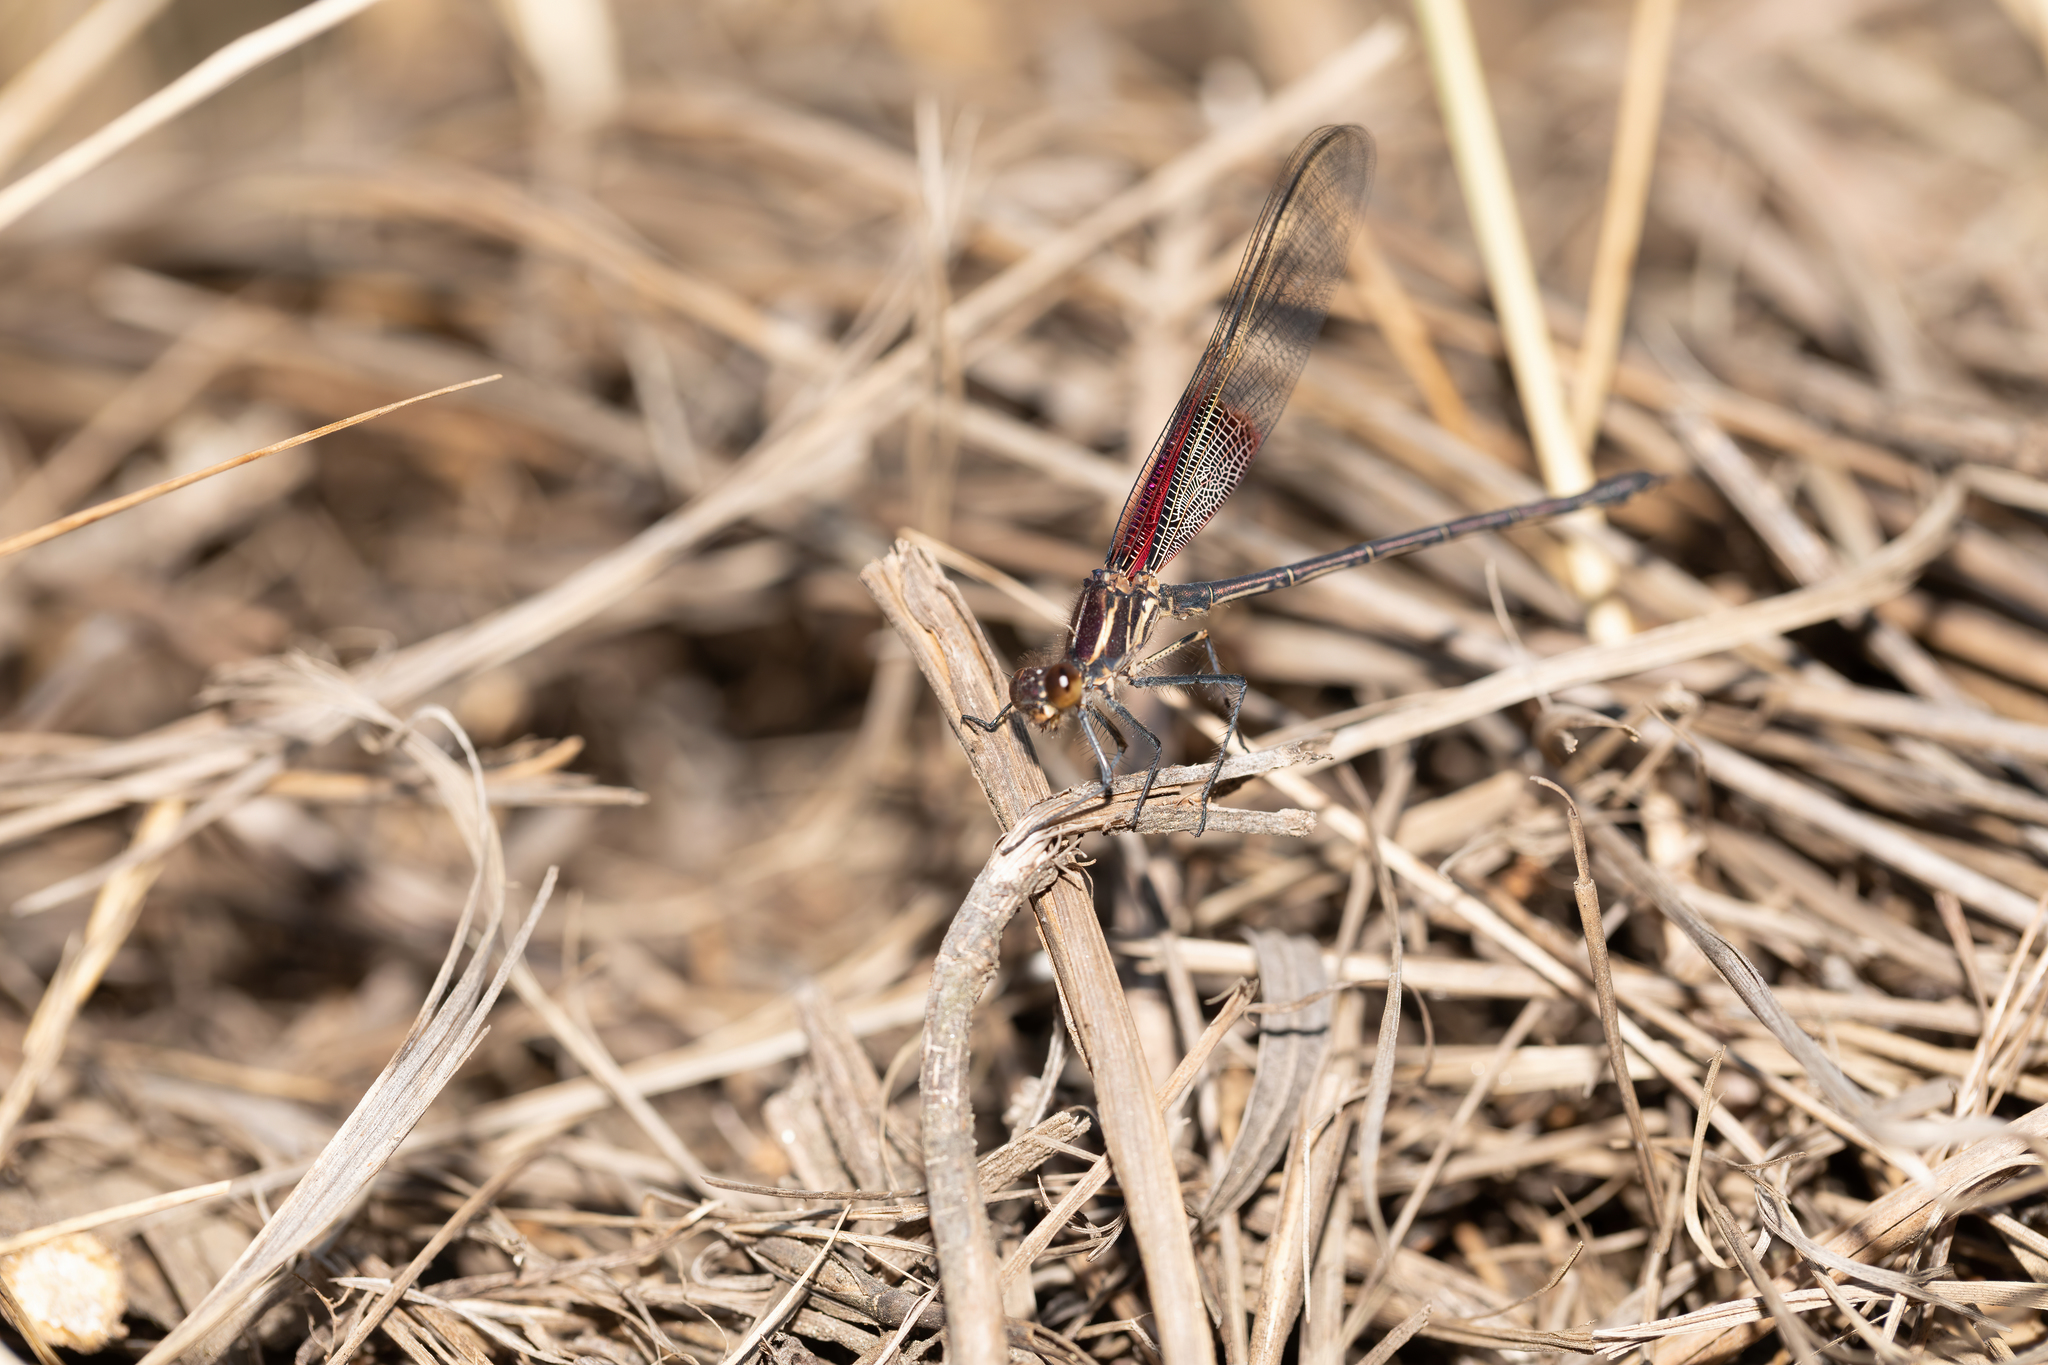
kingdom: Animalia
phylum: Arthropoda
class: Insecta
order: Odonata
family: Calopterygidae
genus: Hetaerina
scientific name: Hetaerina americana
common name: American rubyspot
